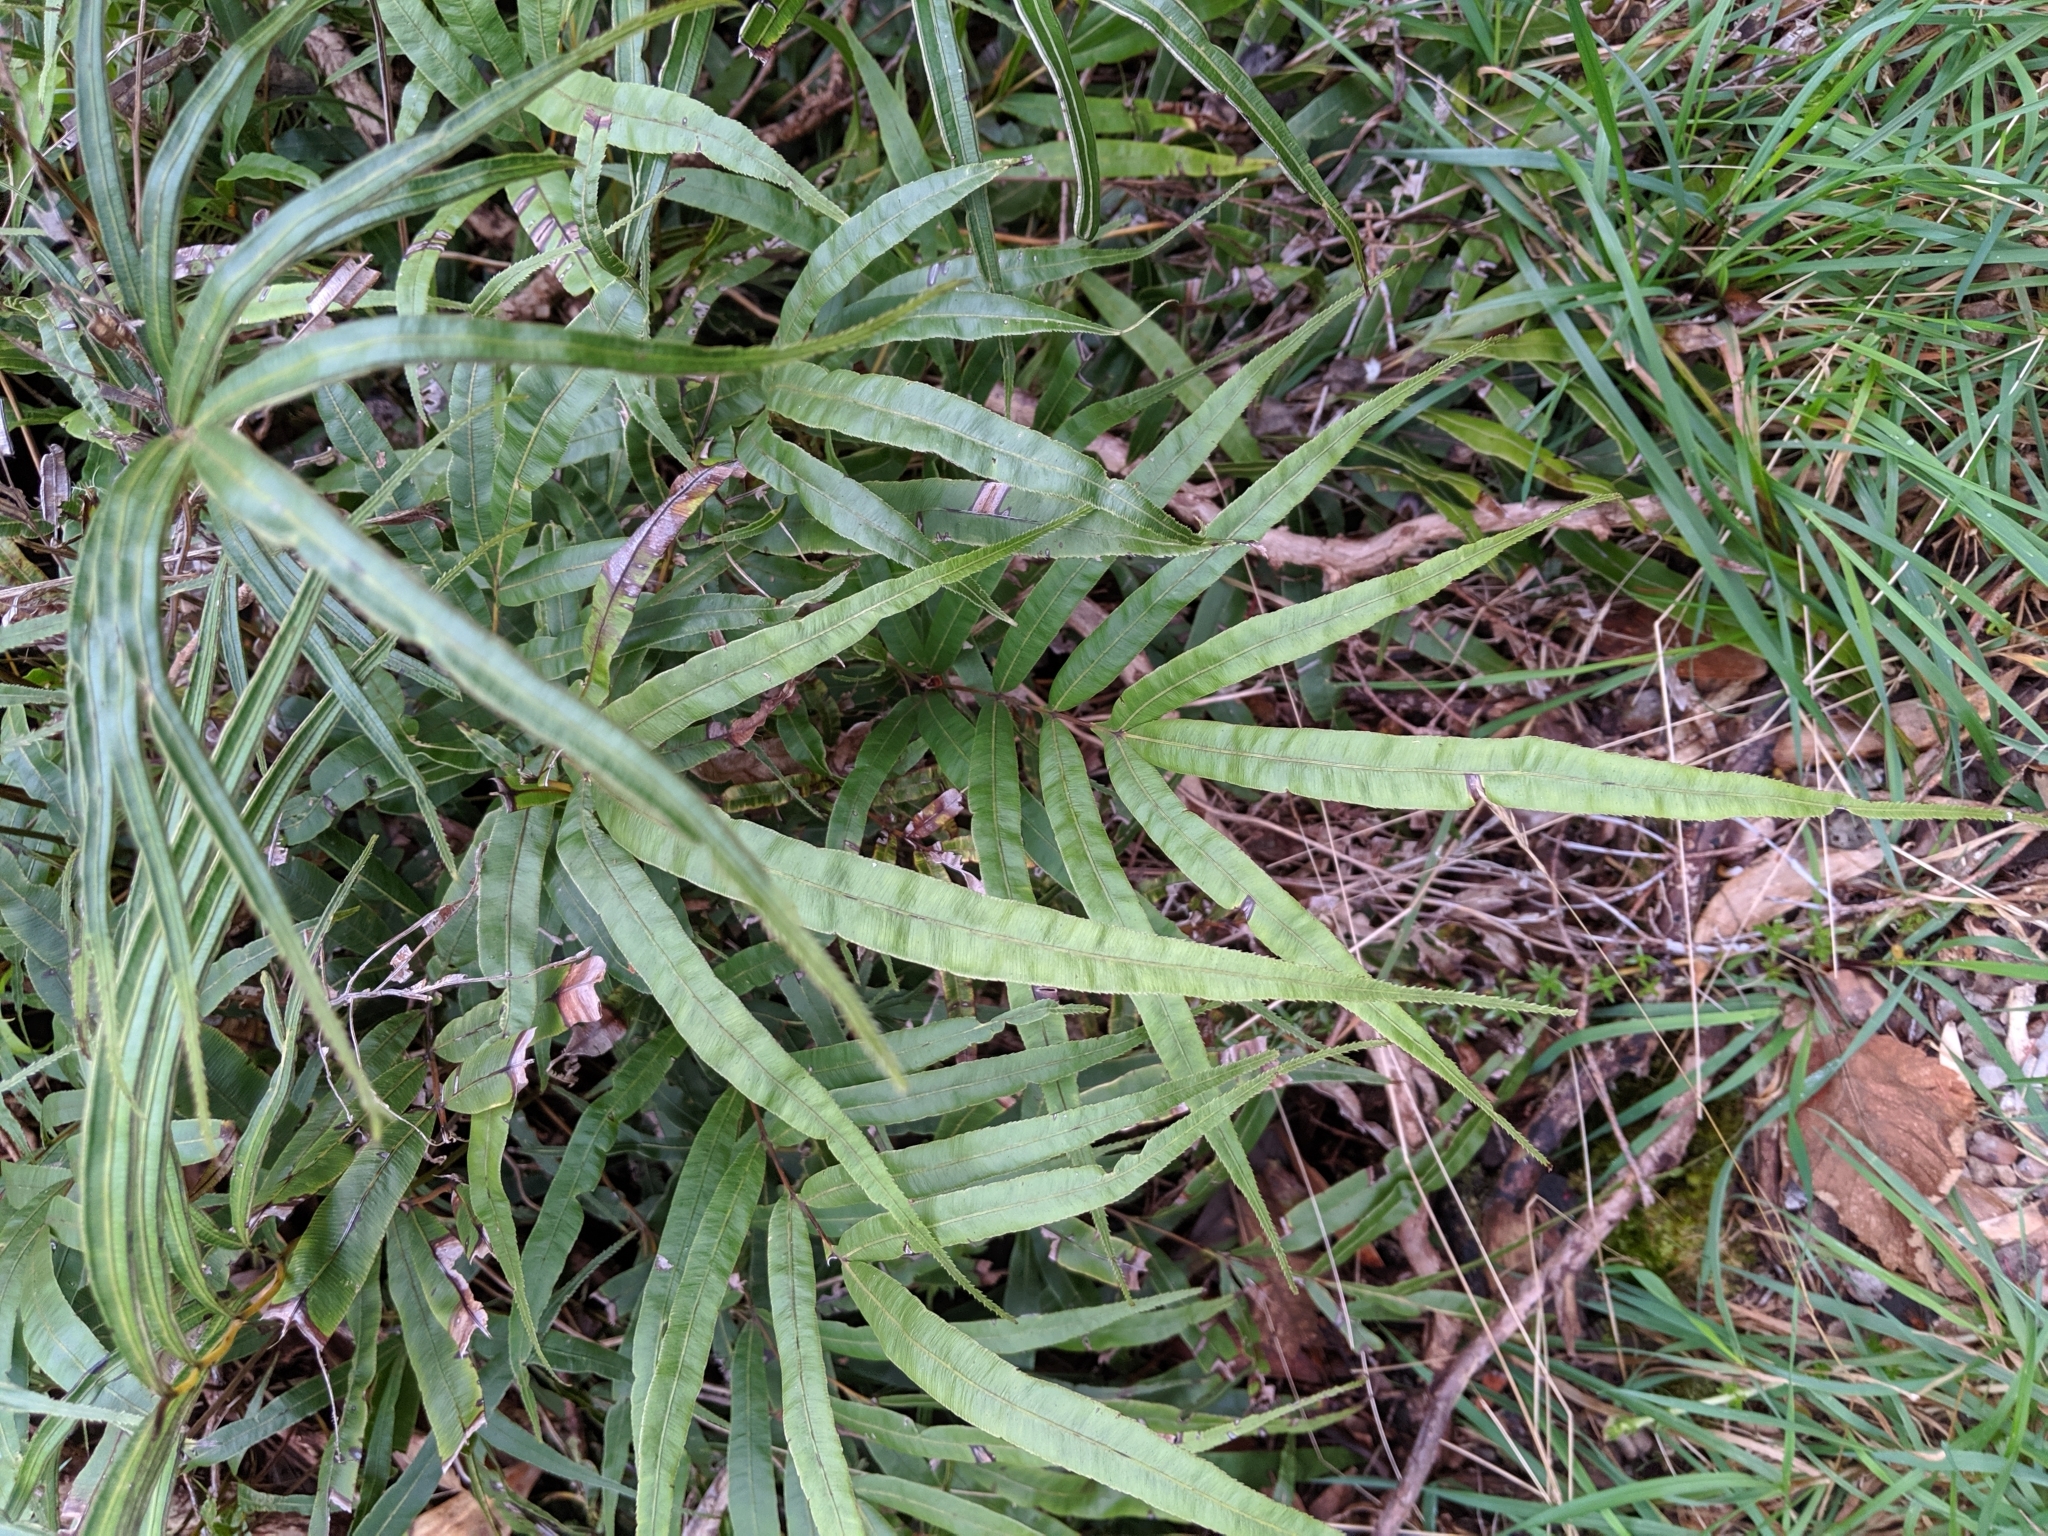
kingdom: Plantae
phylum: Tracheophyta
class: Polypodiopsida
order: Polypodiales
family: Pteridaceae
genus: Pteris
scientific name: Pteris cretica
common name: Ribbon fern
